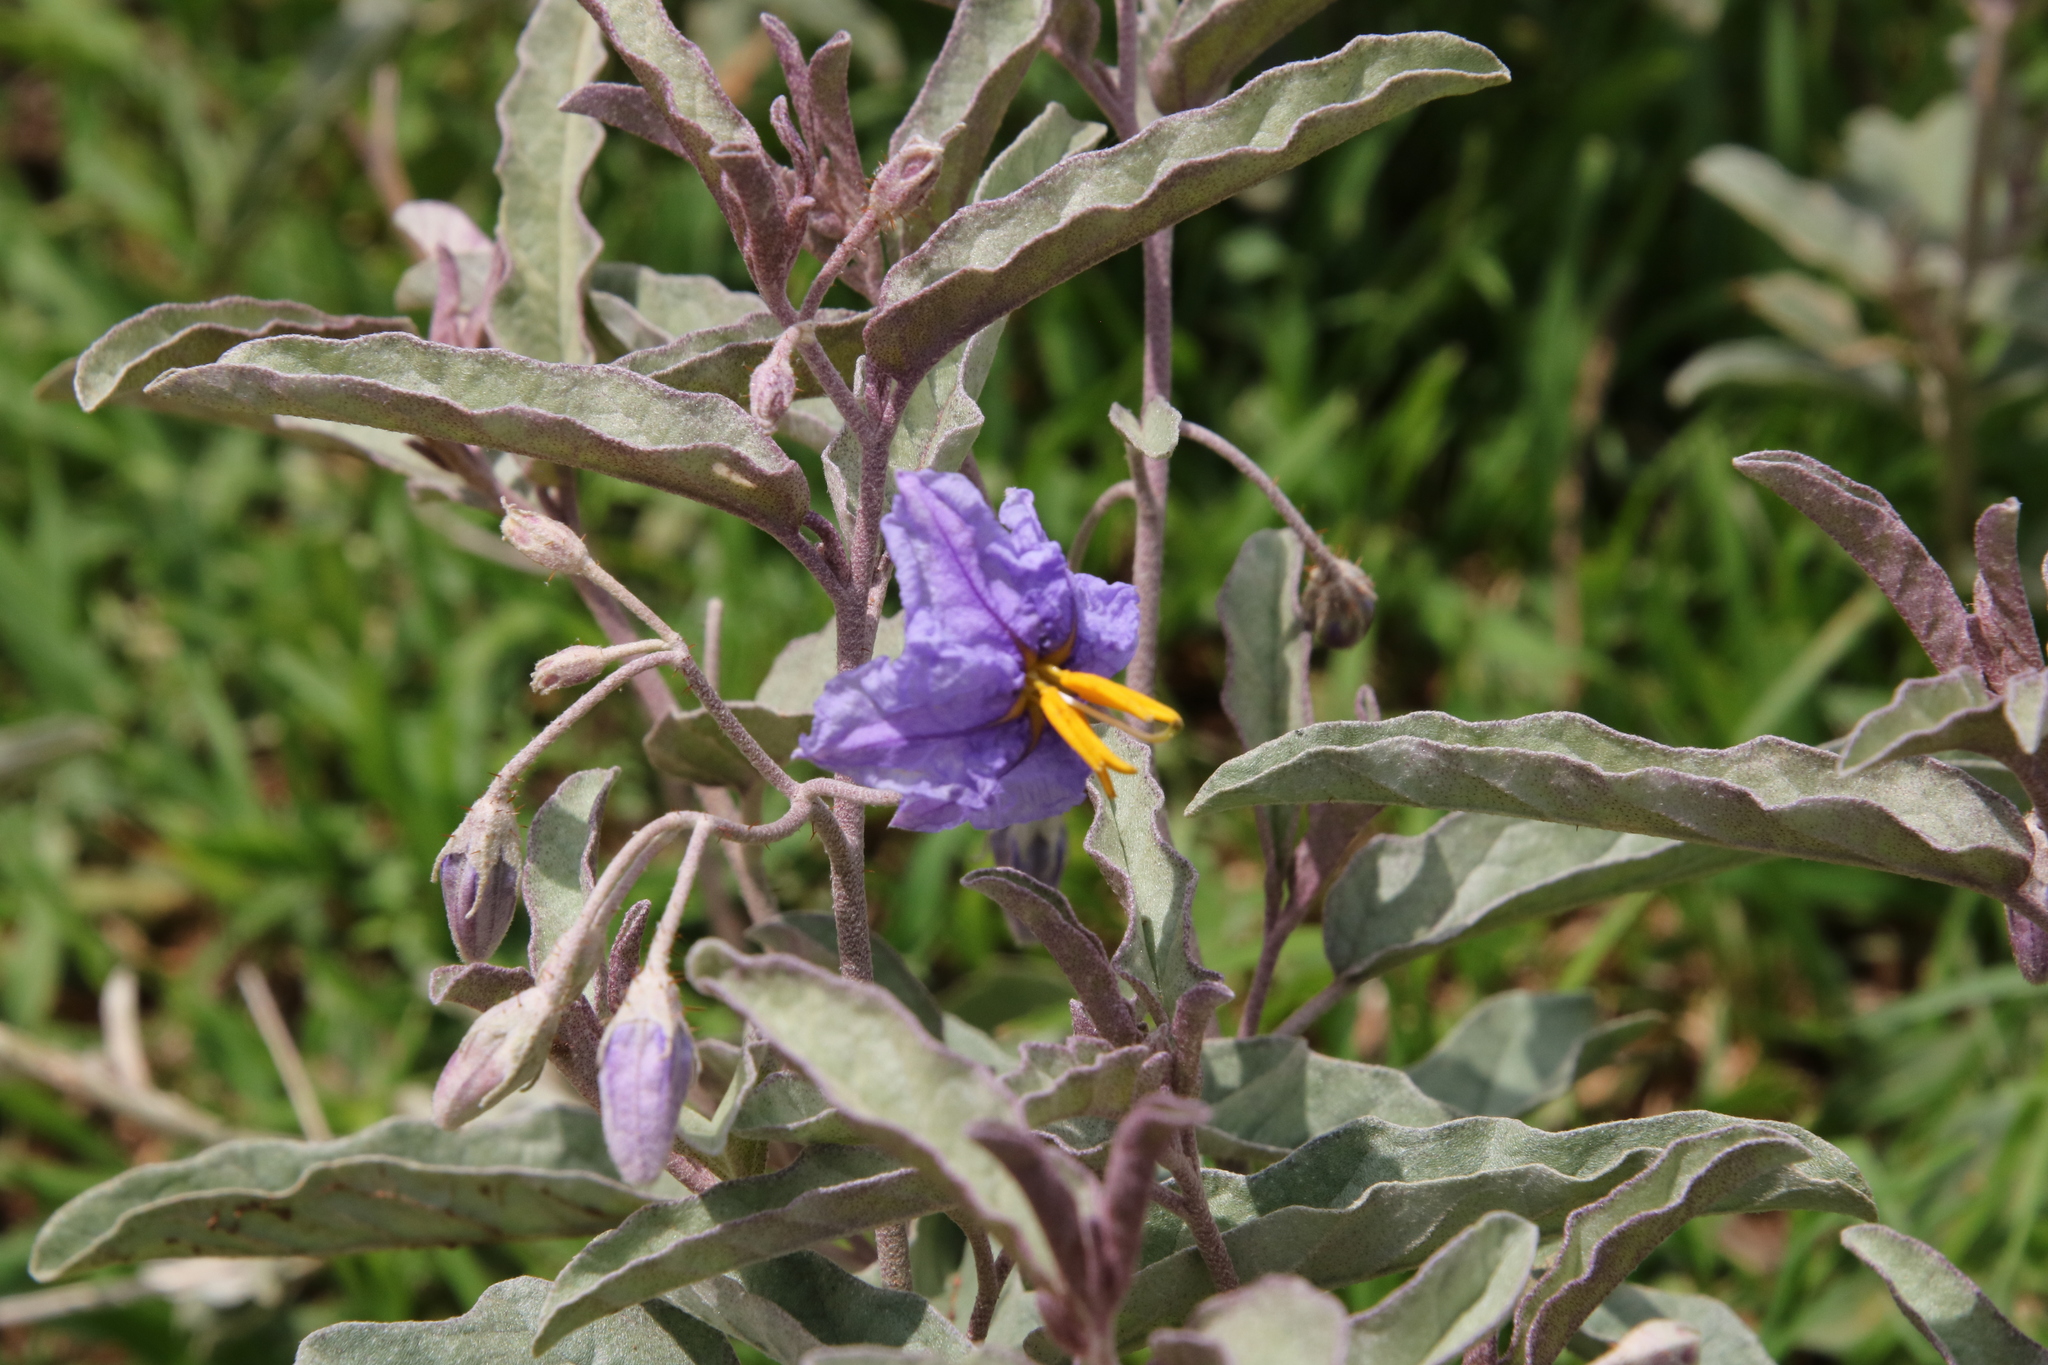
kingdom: Plantae
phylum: Tracheophyta
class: Magnoliopsida
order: Solanales
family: Solanaceae
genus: Solanum
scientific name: Solanum elaeagnifolium
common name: Silverleaf nightshade
